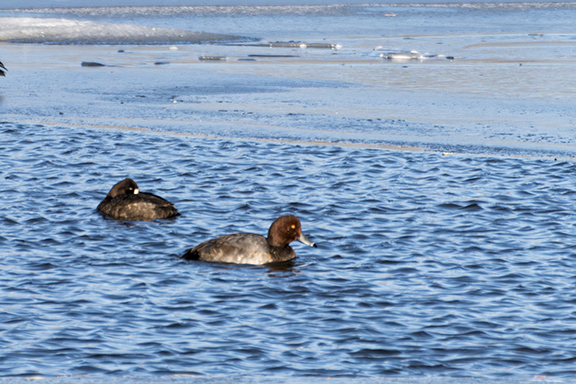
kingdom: Animalia
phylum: Chordata
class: Aves
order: Anseriformes
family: Anatidae
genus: Aythya
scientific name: Aythya americana
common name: Redhead
